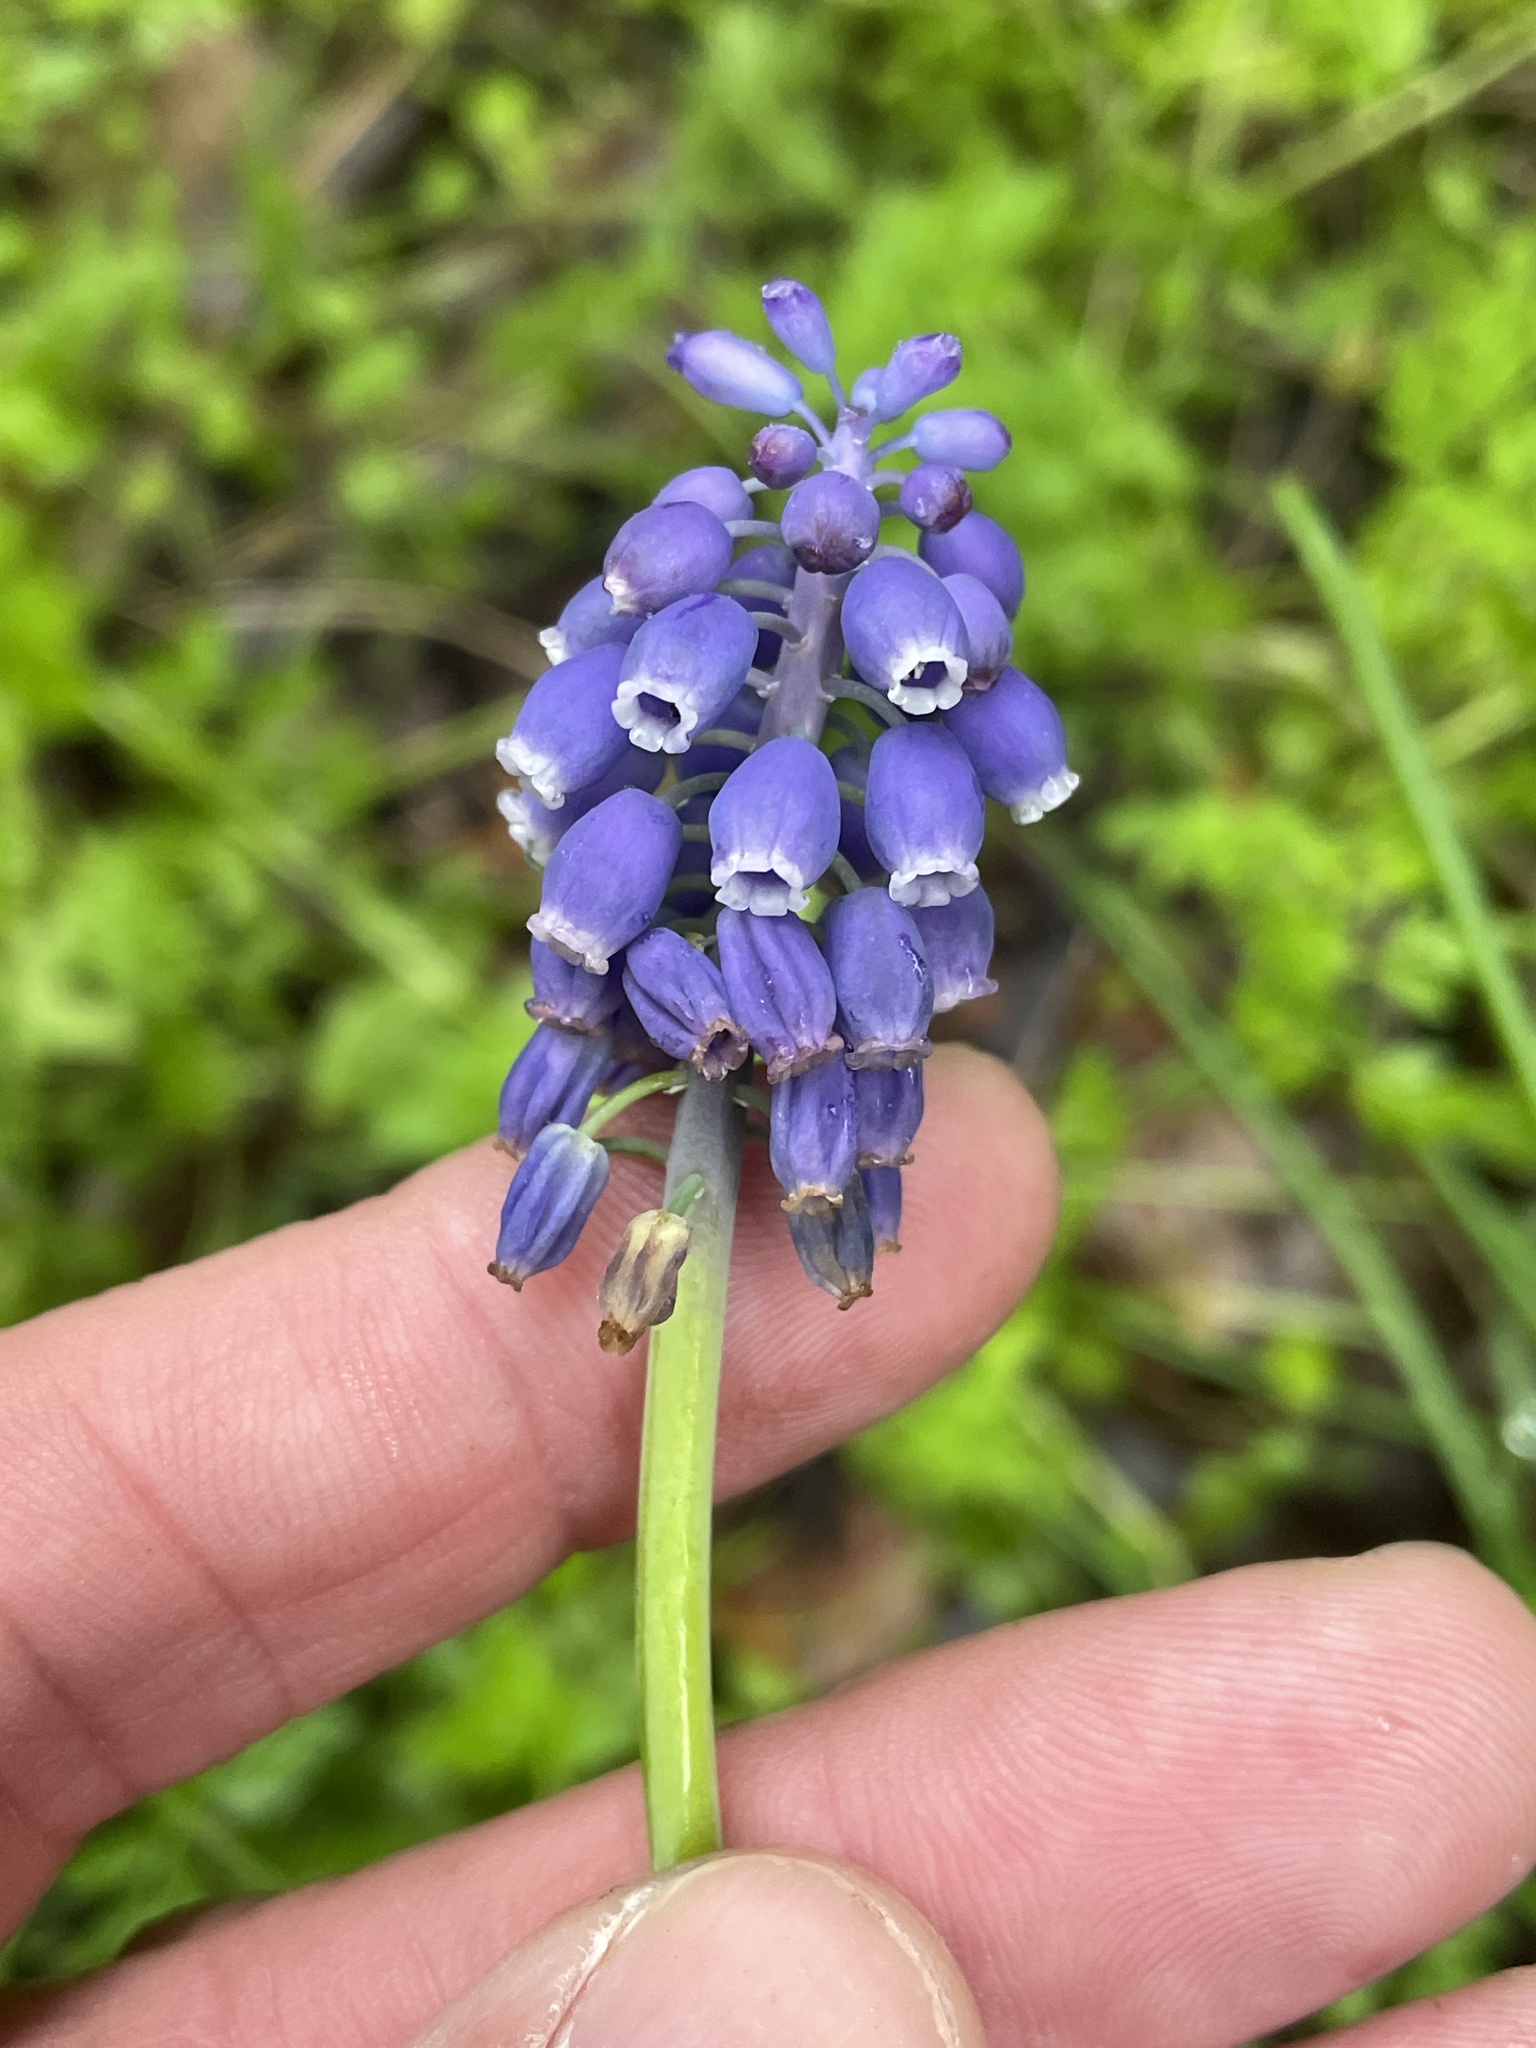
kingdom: Plantae
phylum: Tracheophyta
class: Liliopsida
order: Asparagales
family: Asparagaceae
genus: Muscari
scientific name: Muscari neglectum
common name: Grape-hyacinth
